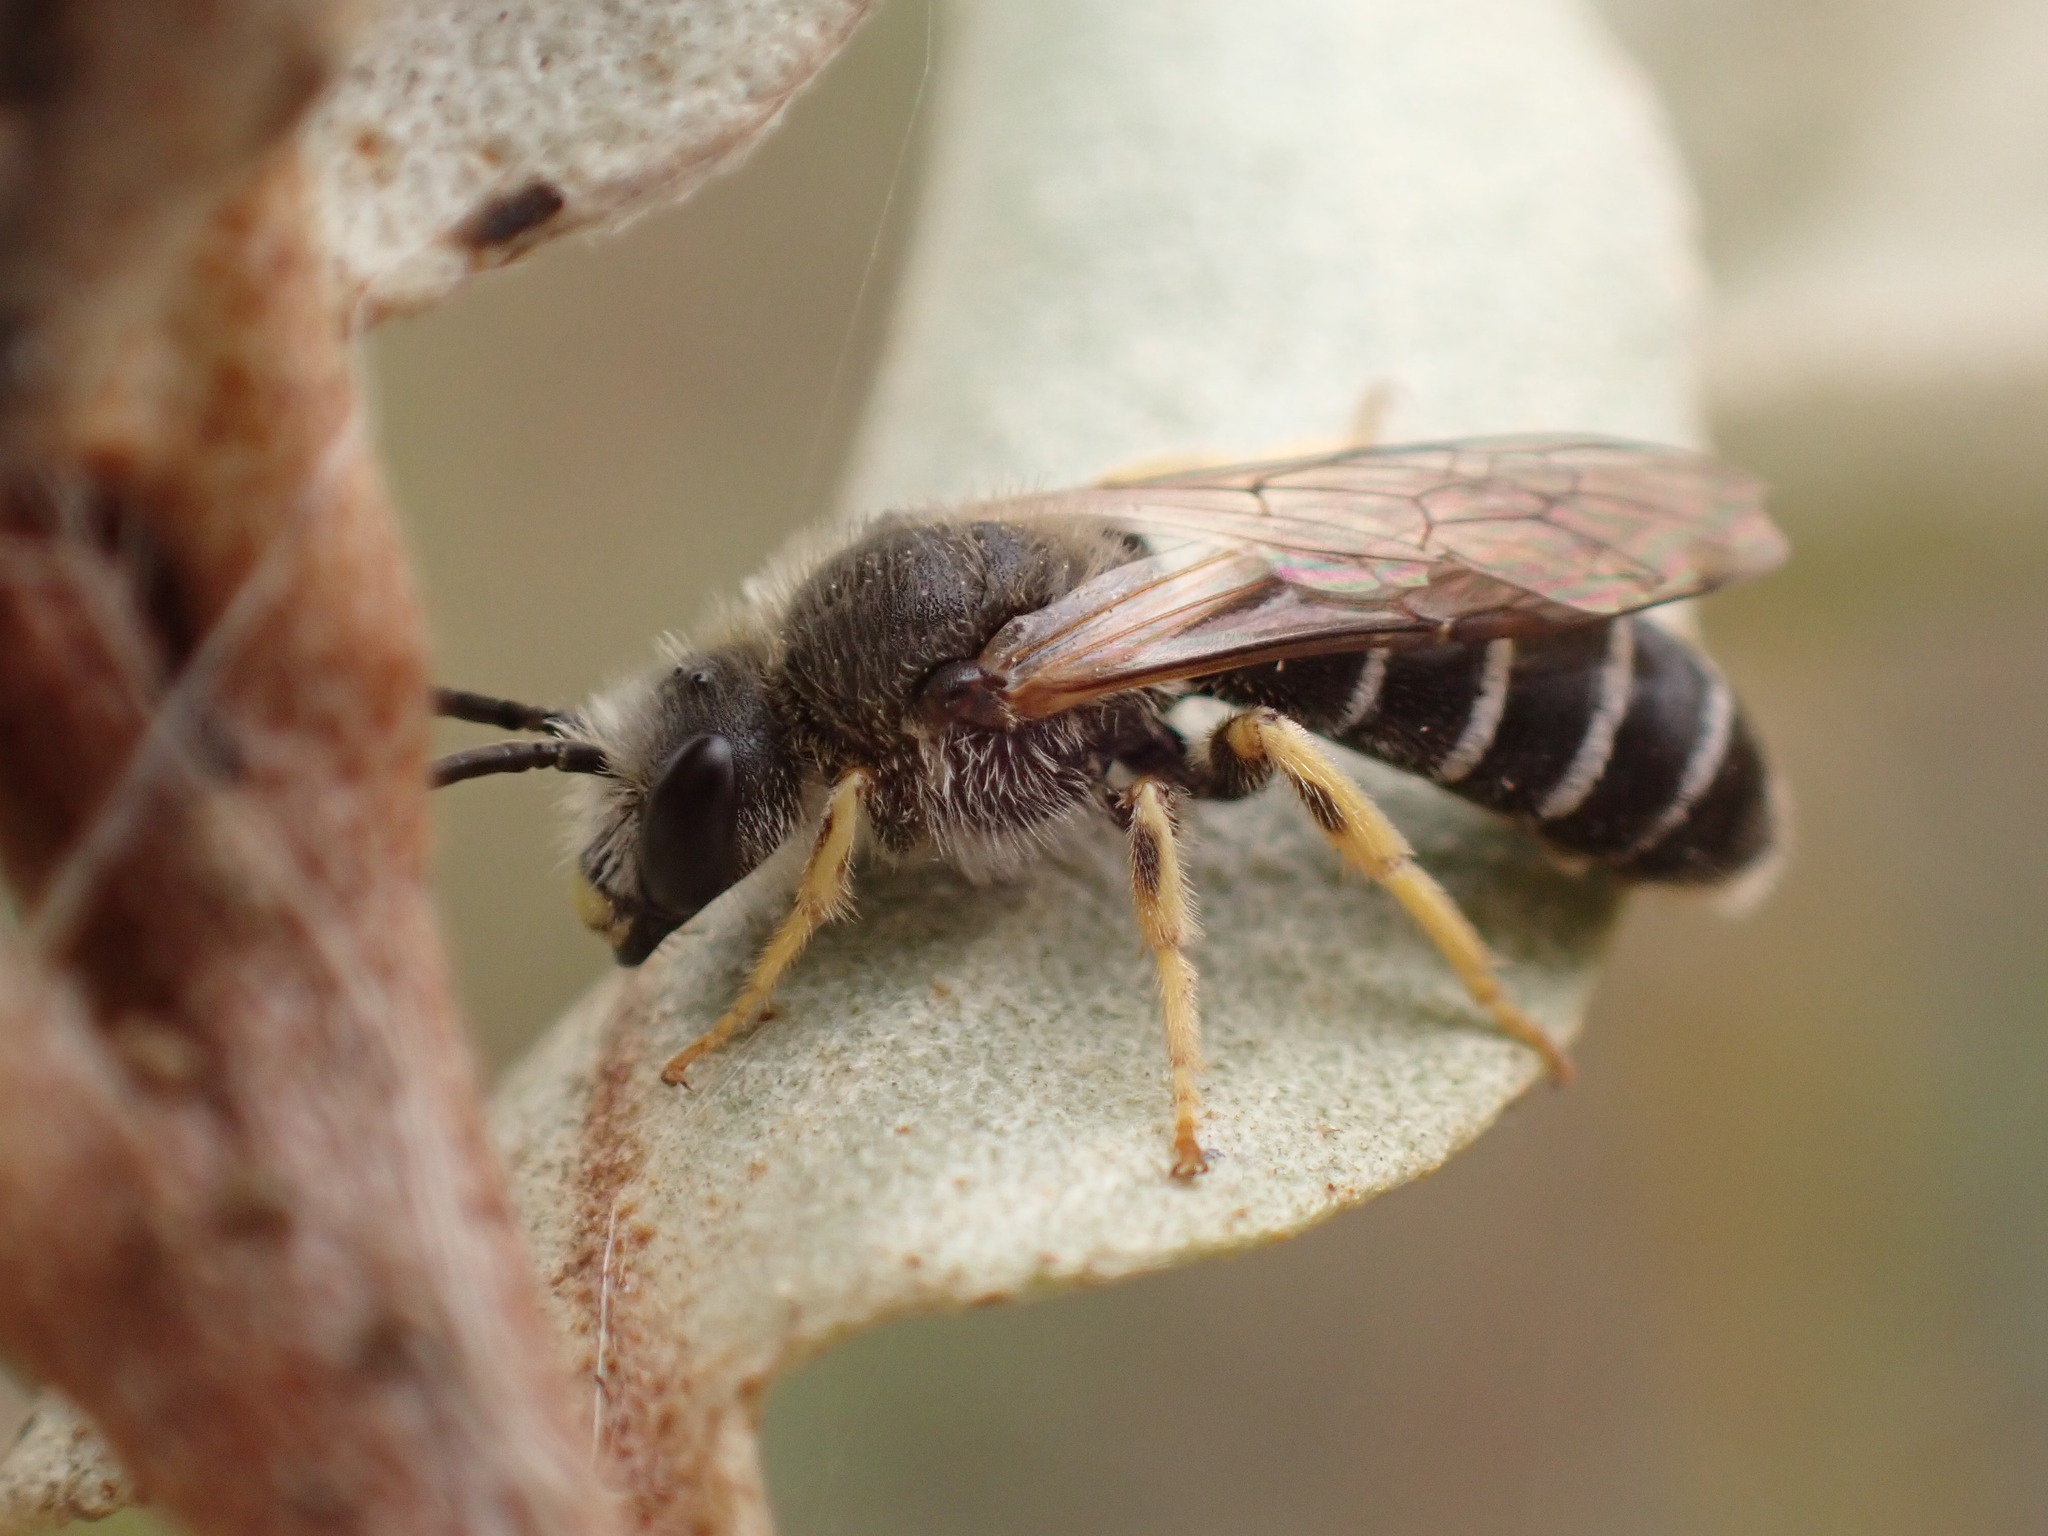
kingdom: Animalia
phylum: Arthropoda
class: Insecta
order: Hymenoptera
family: Halictidae
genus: Halictus
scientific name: Halictus rubicundus
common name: Orange-legged furrow bee
